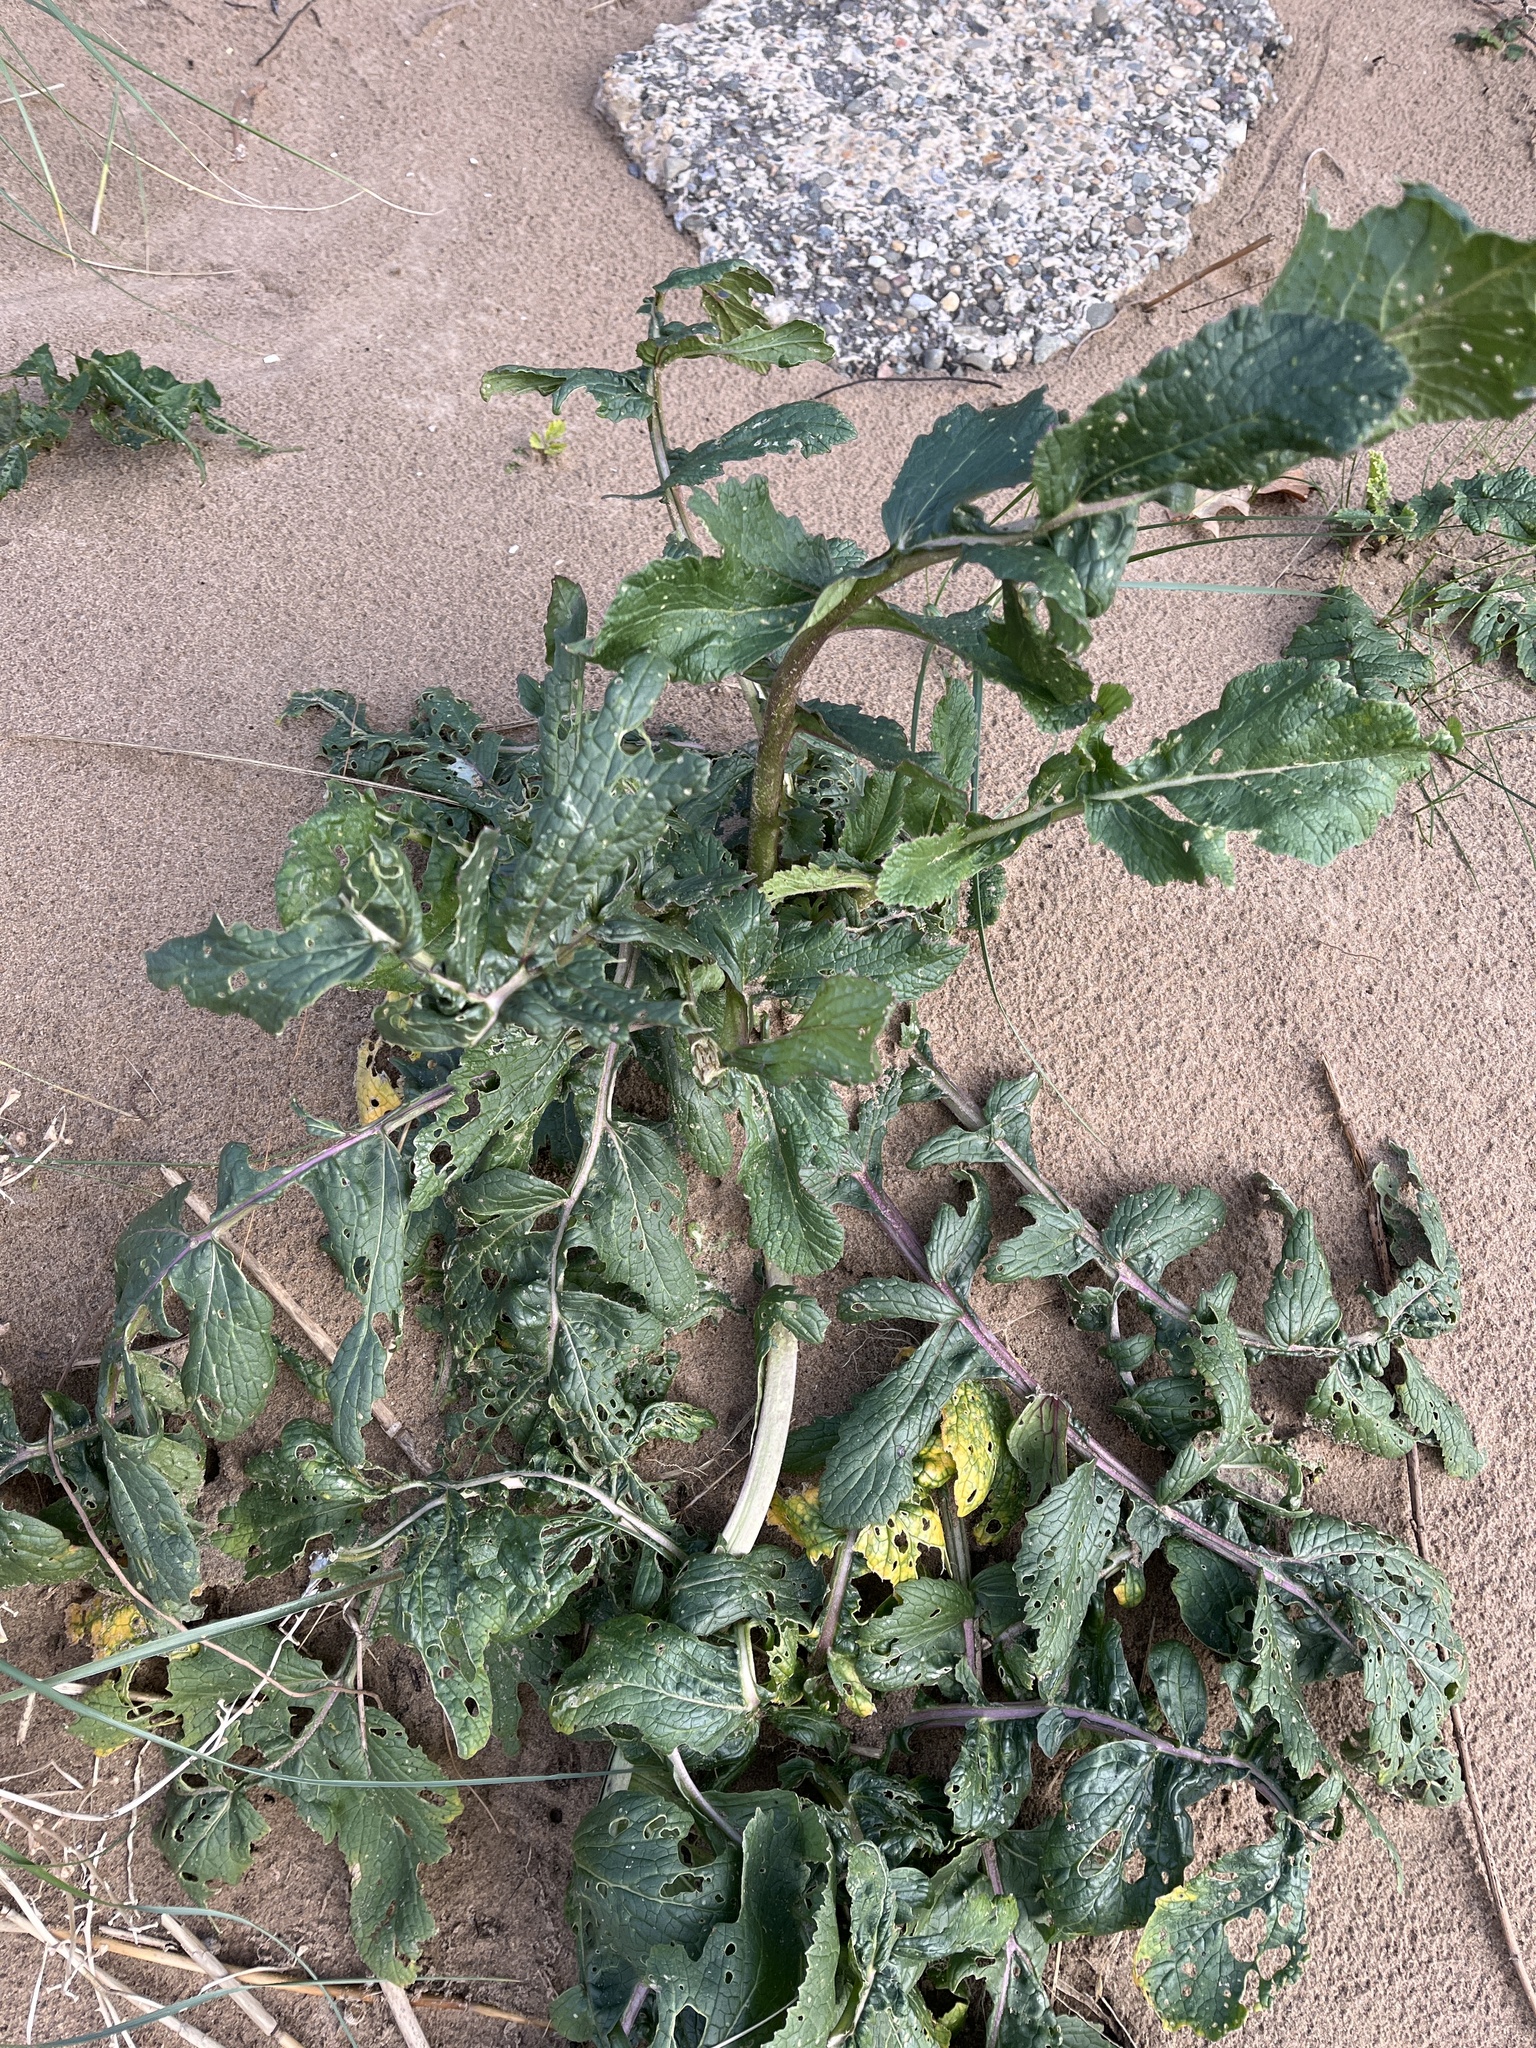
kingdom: Plantae
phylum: Tracheophyta
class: Magnoliopsida
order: Brassicales
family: Brassicaceae
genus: Raphanus
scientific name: Raphanus raphanistrum
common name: Wild radish
